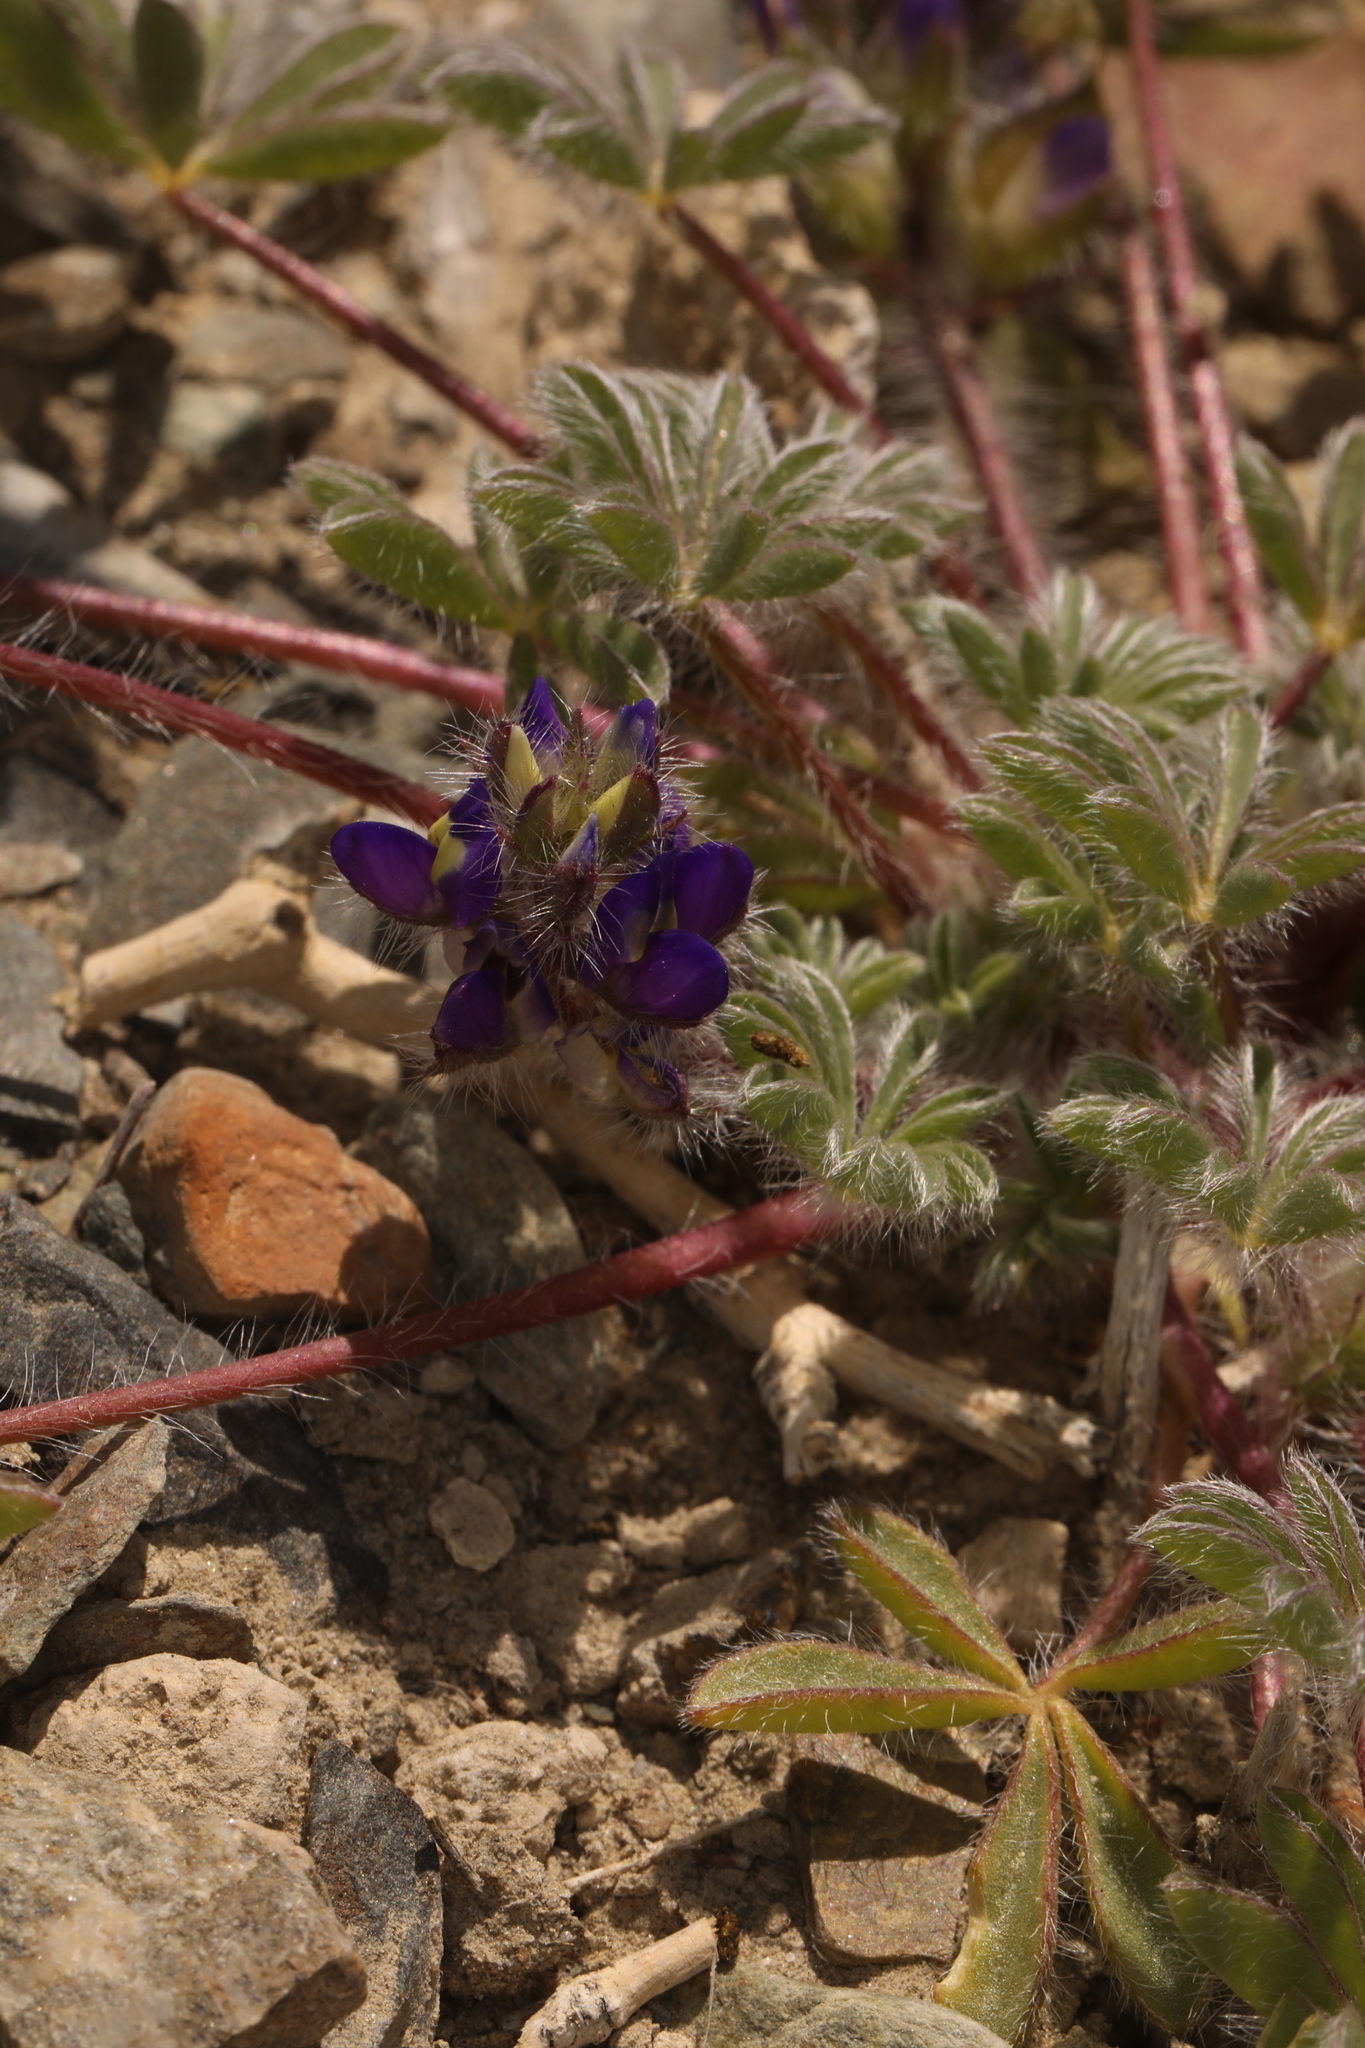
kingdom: Plantae
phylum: Tracheophyta
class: Magnoliopsida
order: Fabales
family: Fabaceae
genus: Lupinus
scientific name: Lupinus flavoculatus
